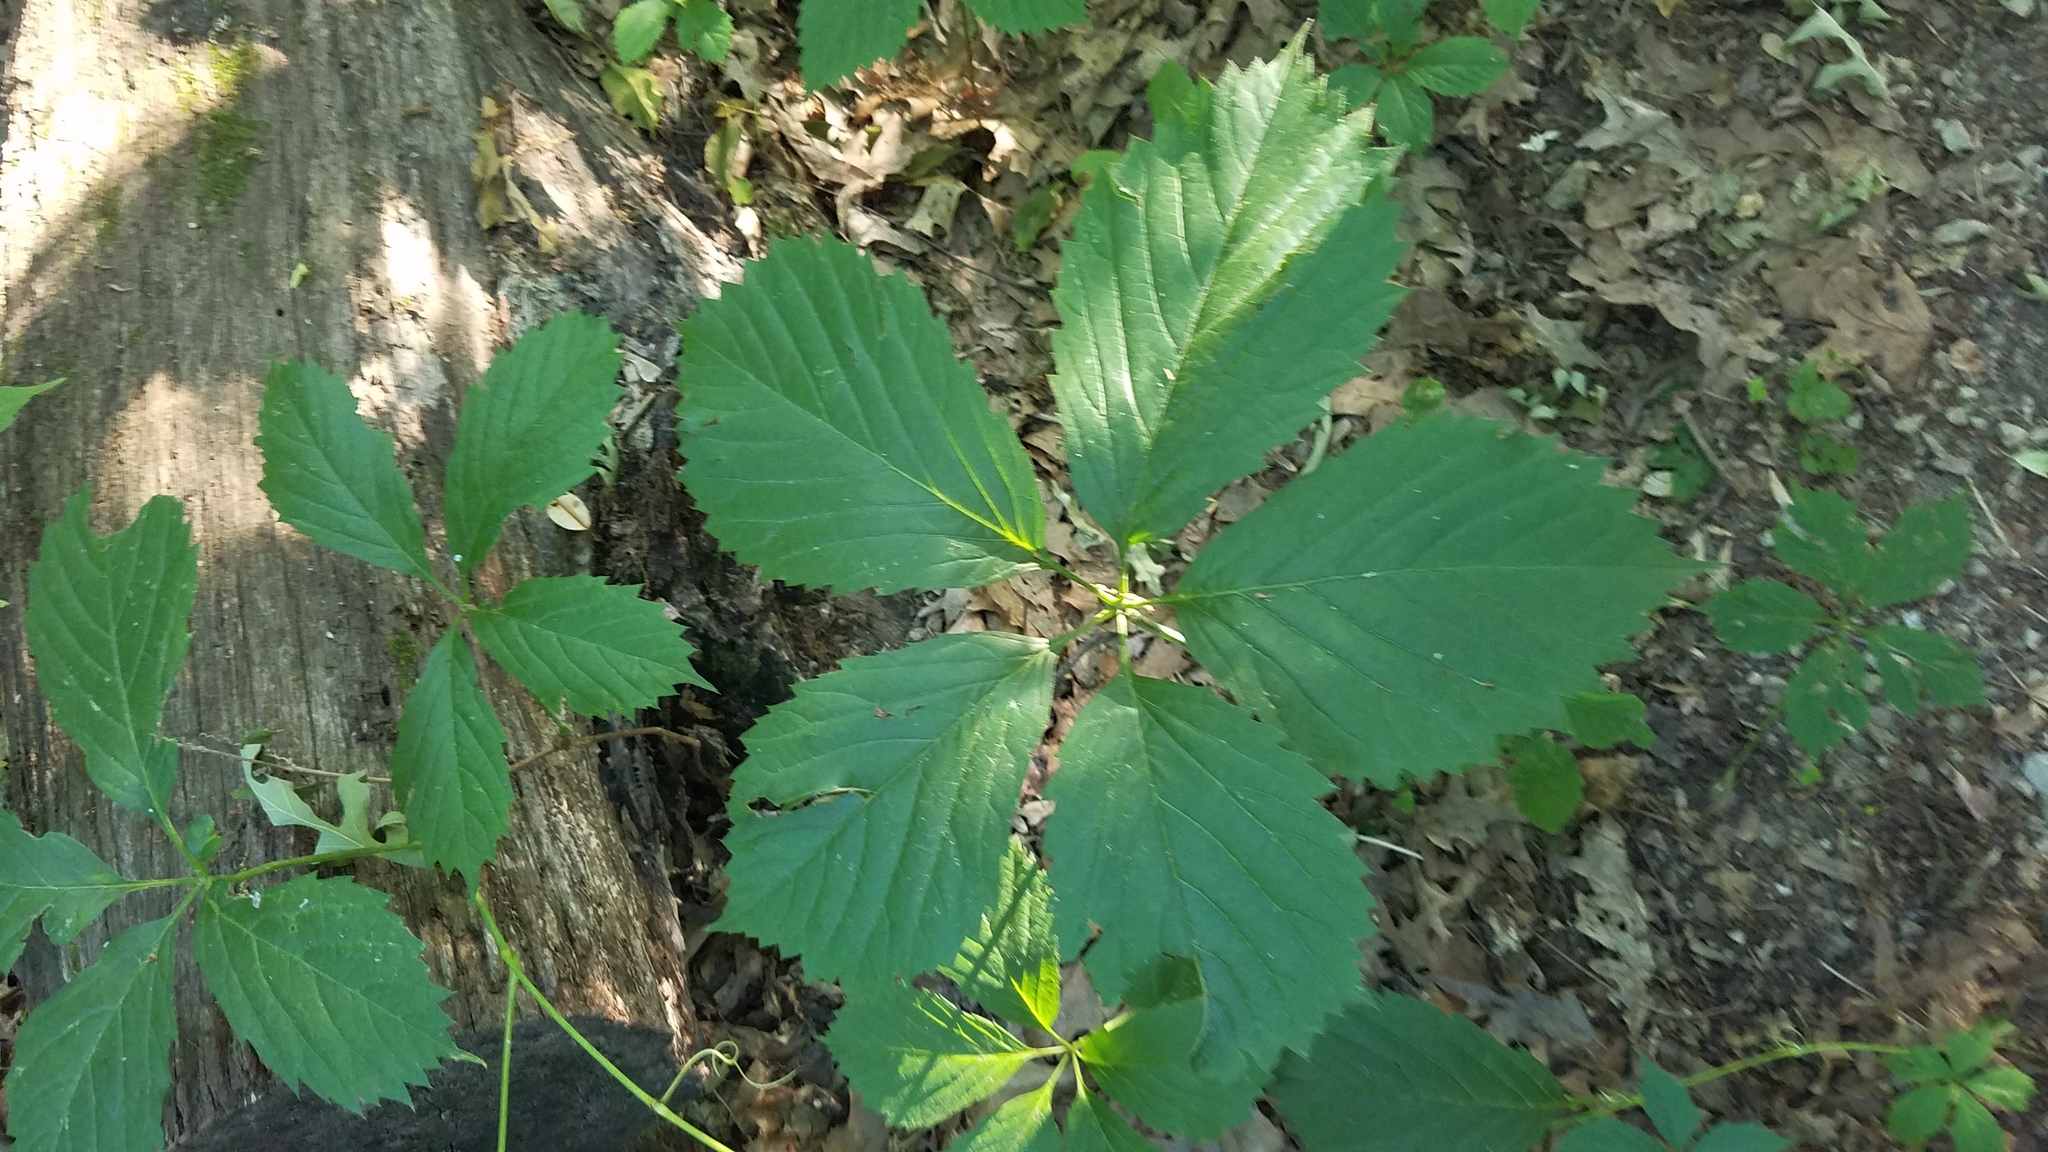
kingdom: Plantae
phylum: Tracheophyta
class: Magnoliopsida
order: Vitales
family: Vitaceae
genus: Parthenocissus
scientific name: Parthenocissus inserta
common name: False virginia-creeper
